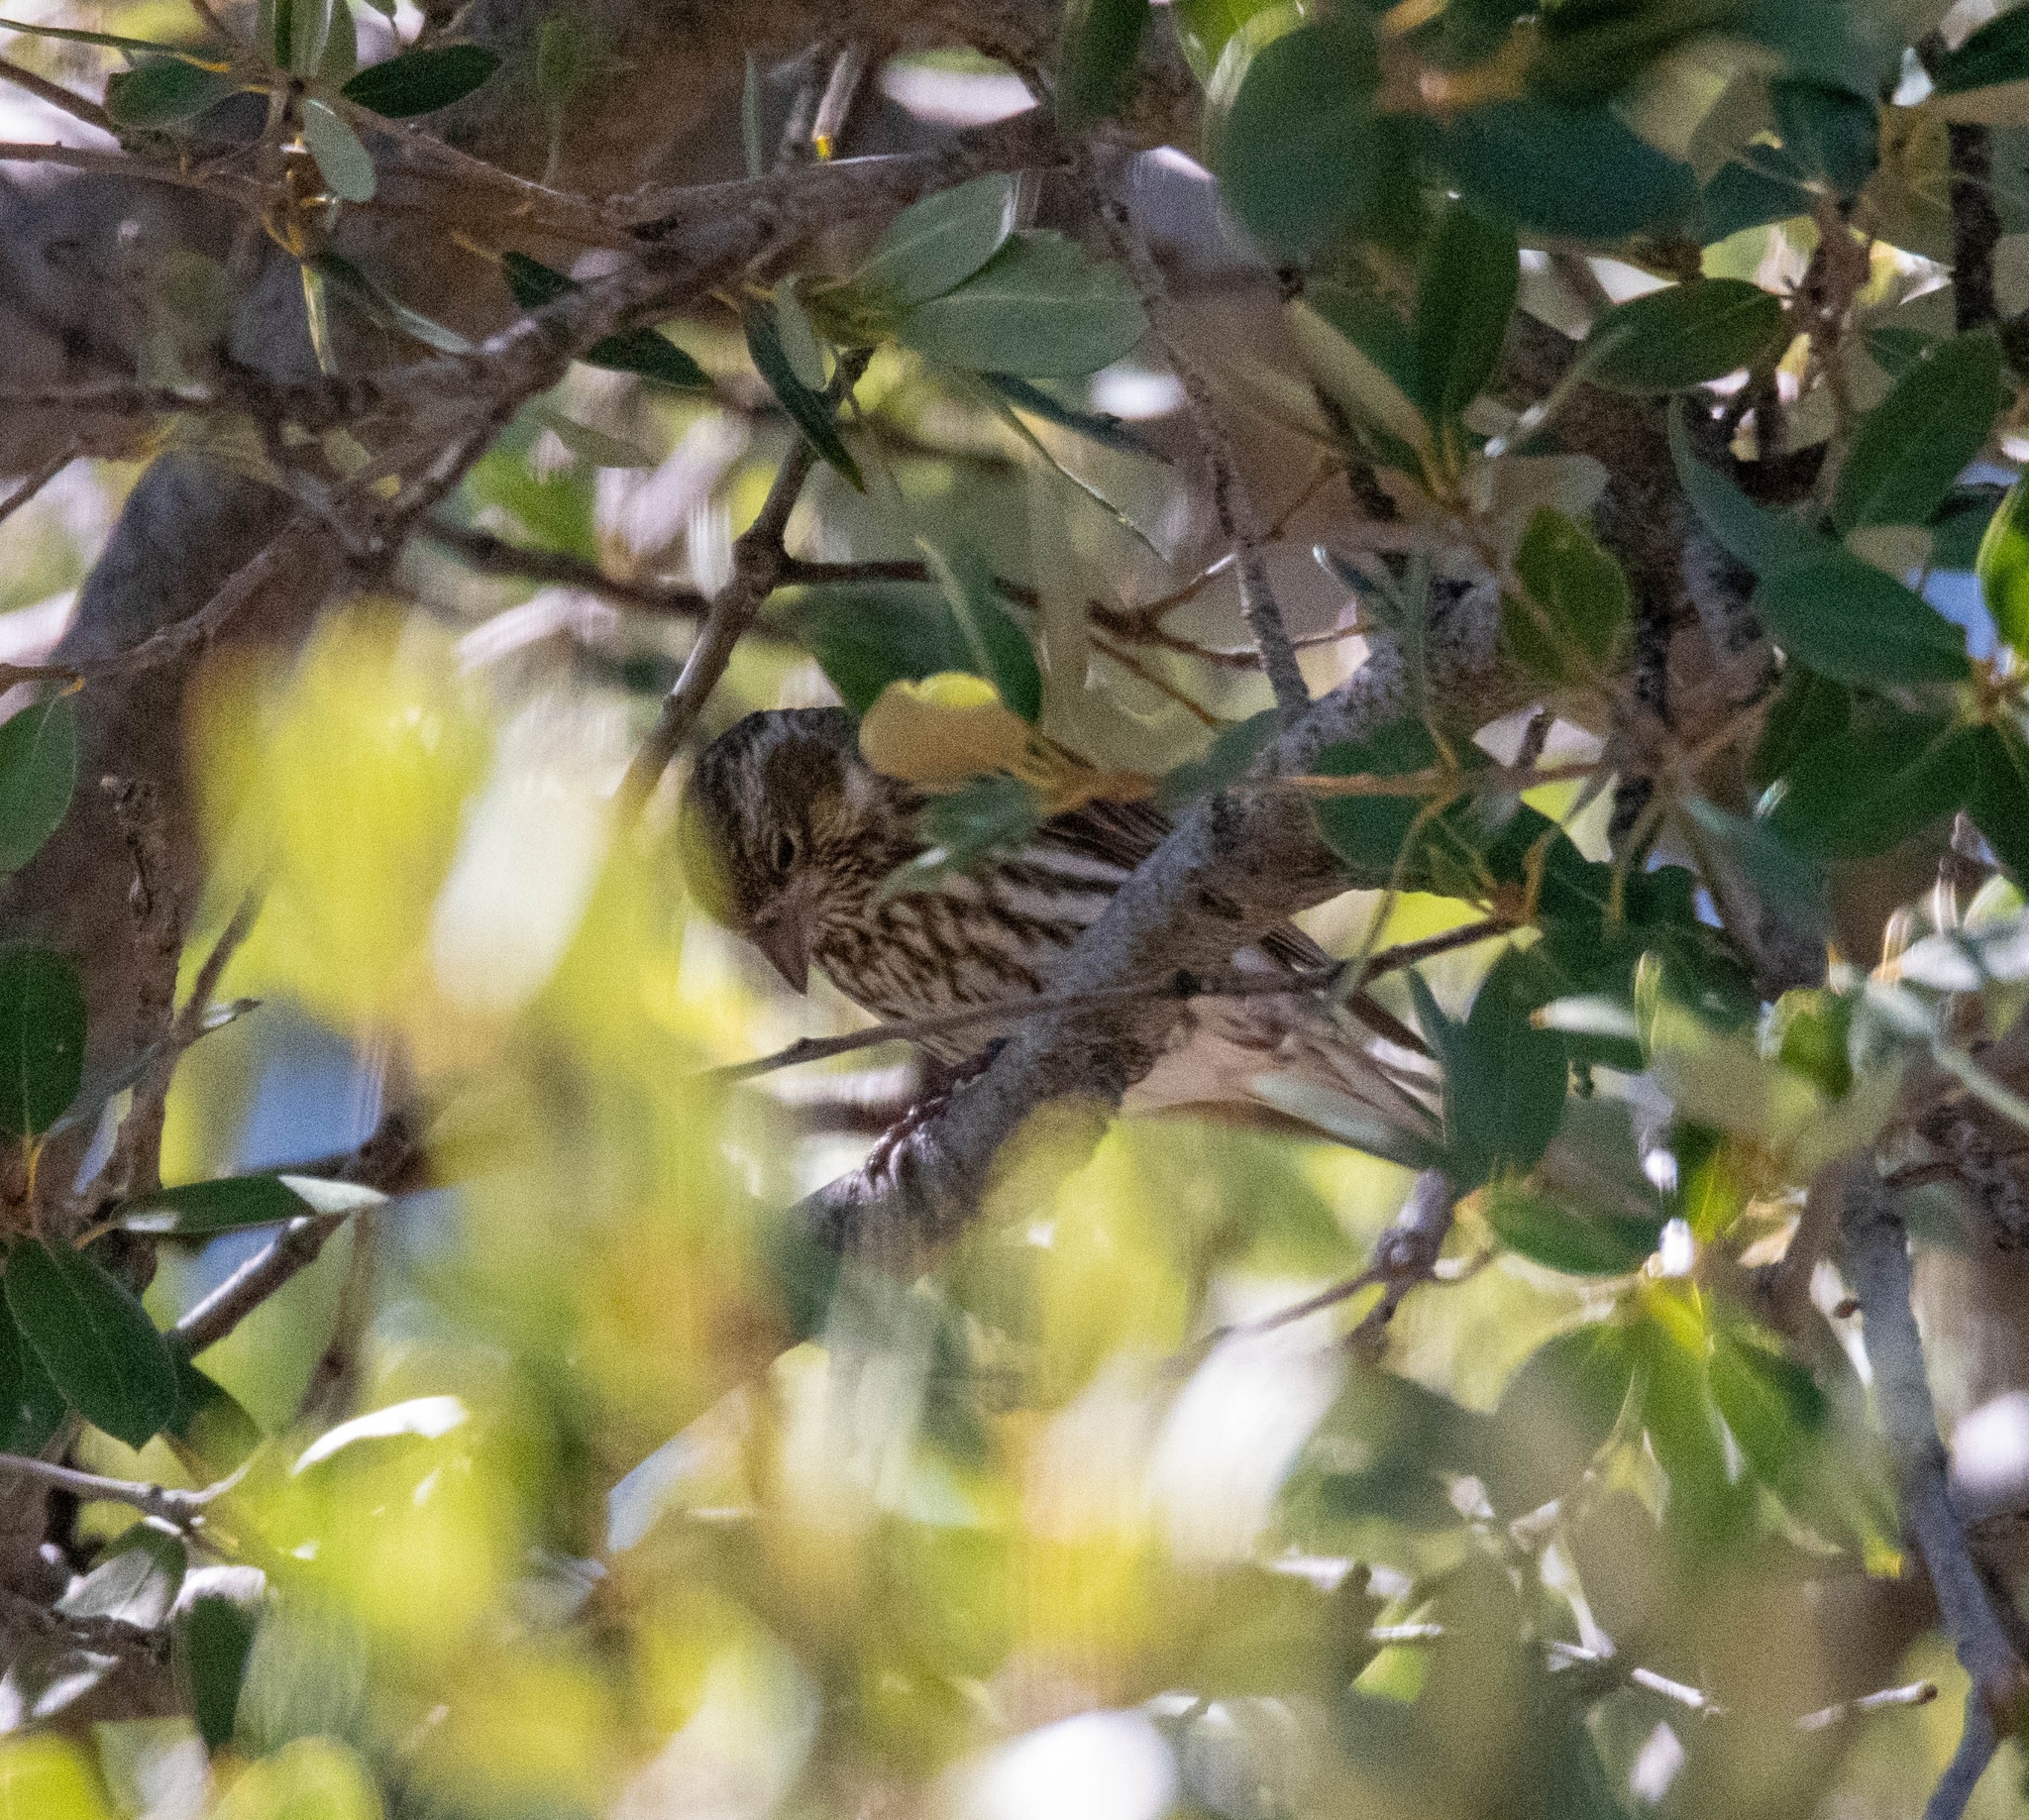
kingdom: Animalia
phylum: Chordata
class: Aves
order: Passeriformes
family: Fringillidae
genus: Haemorhous
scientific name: Haemorhous cassinii
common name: Cassin's finch
